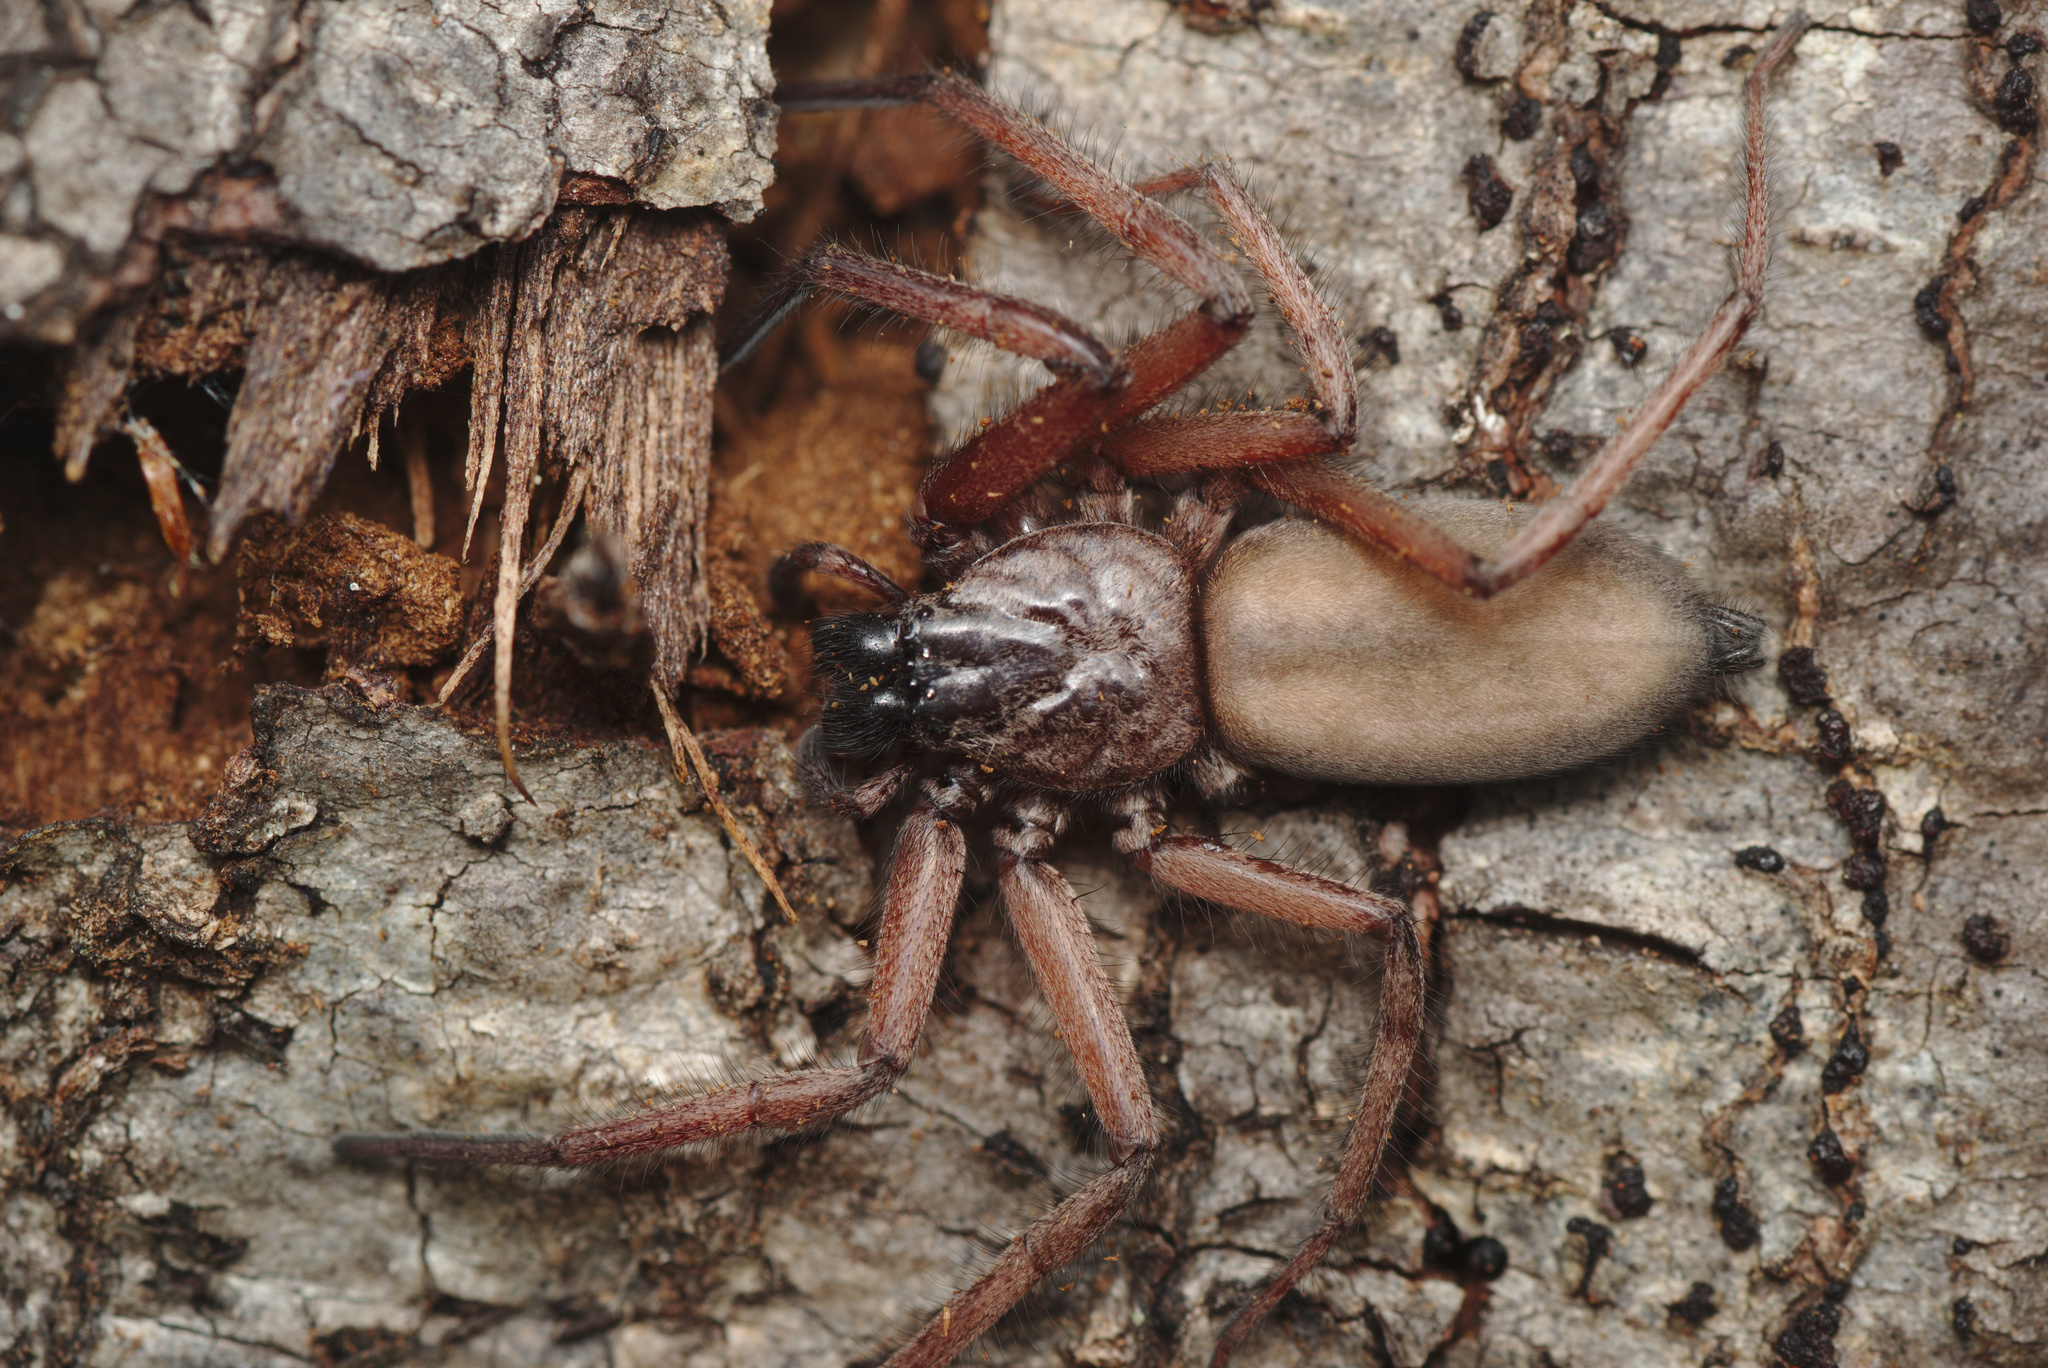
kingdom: Animalia
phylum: Arthropoda
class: Arachnida
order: Araneae
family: Trochanteriidae
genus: Hemicloea
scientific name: Hemicloea rogenhoferi
